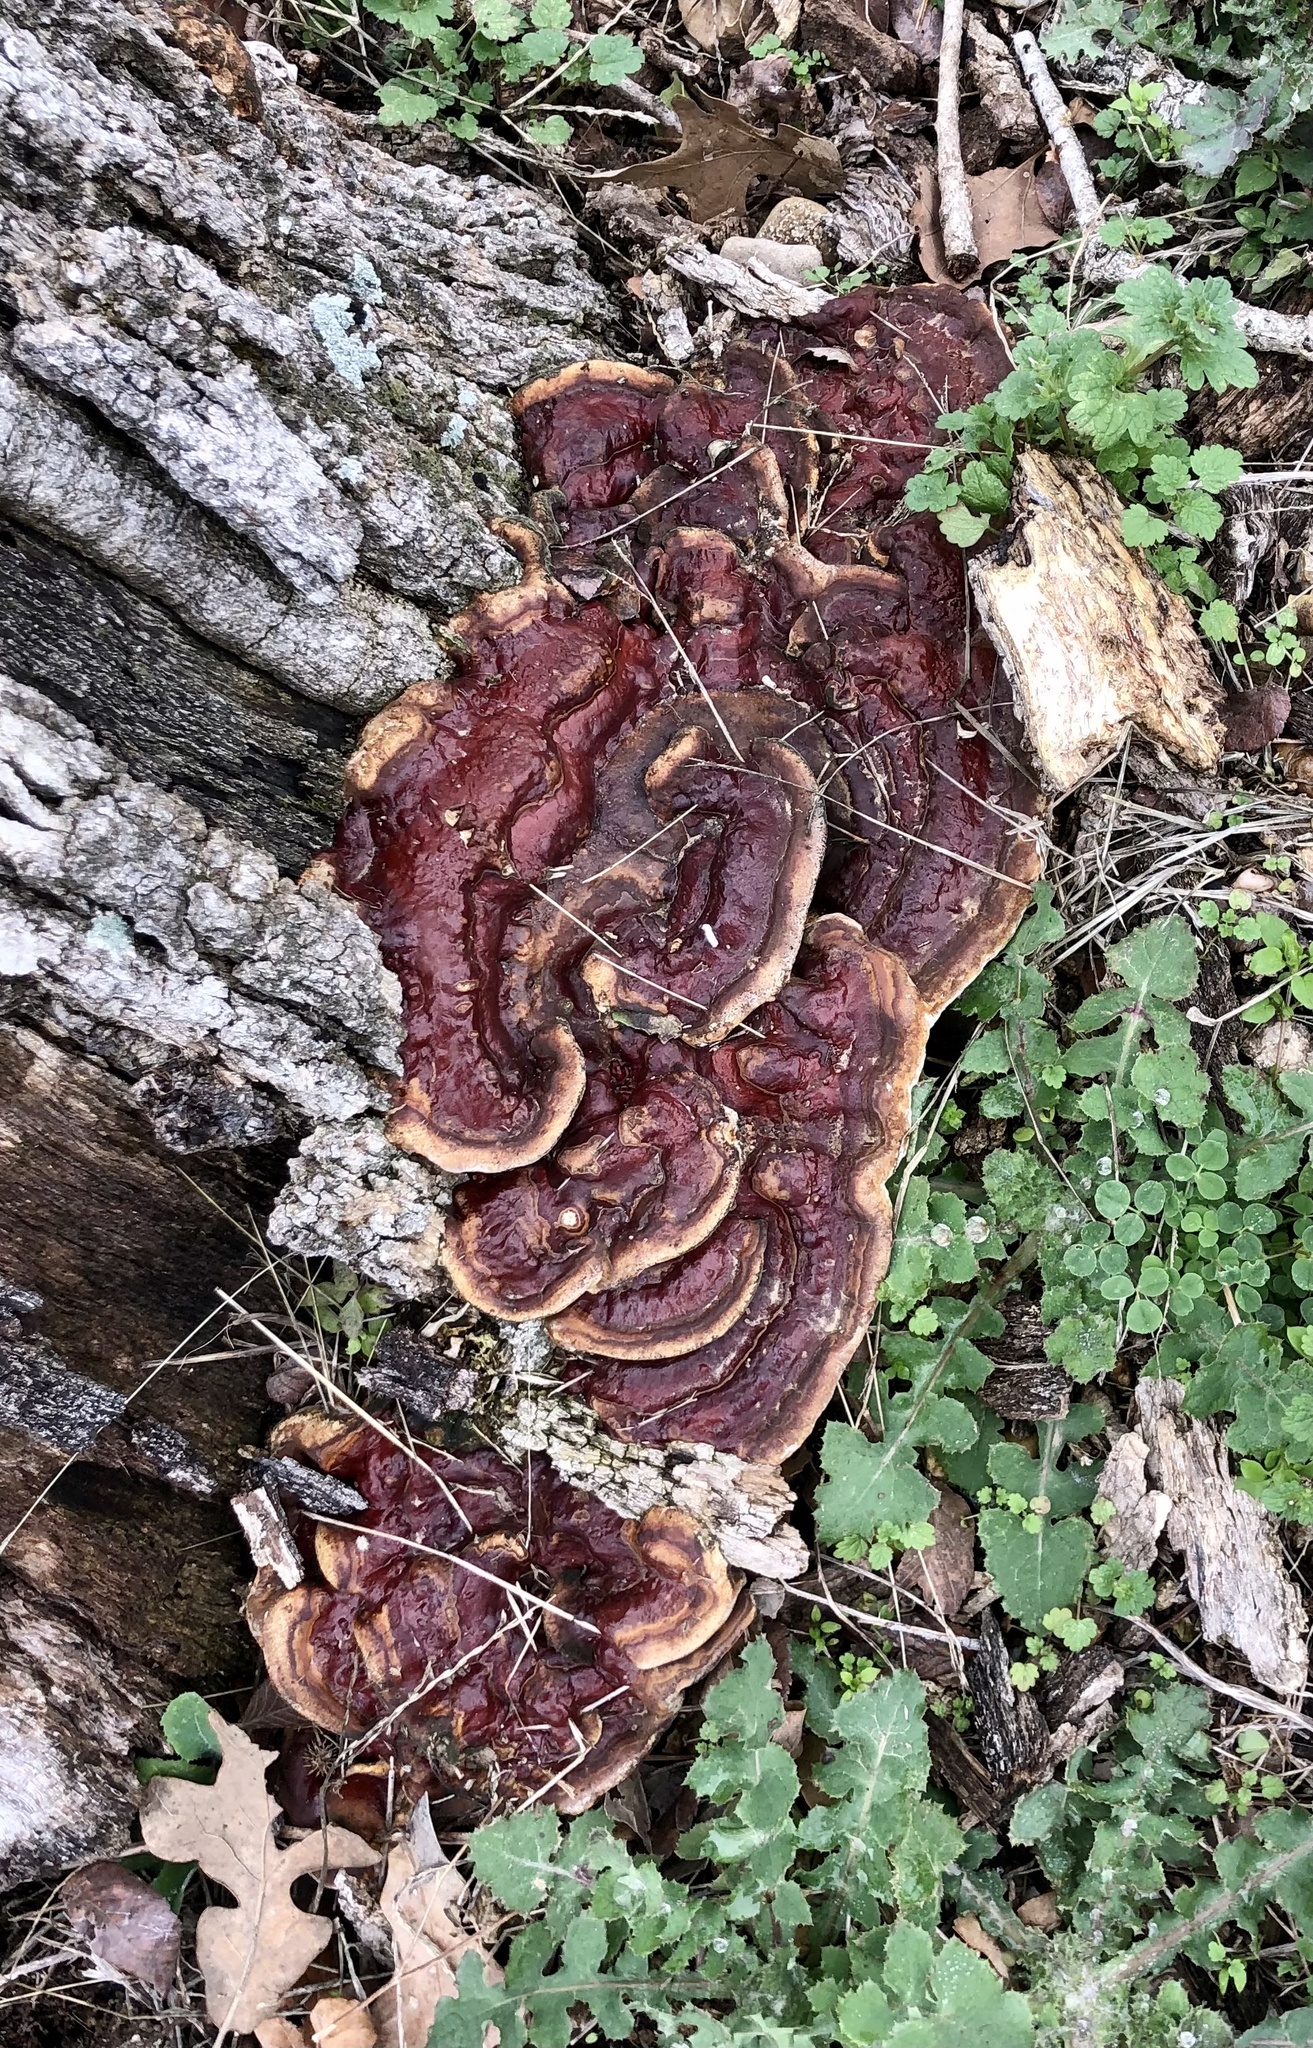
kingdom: Fungi
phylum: Basidiomycota
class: Agaricomycetes
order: Polyporales
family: Polyporaceae
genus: Ganoderma
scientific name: Ganoderma resinaceum
